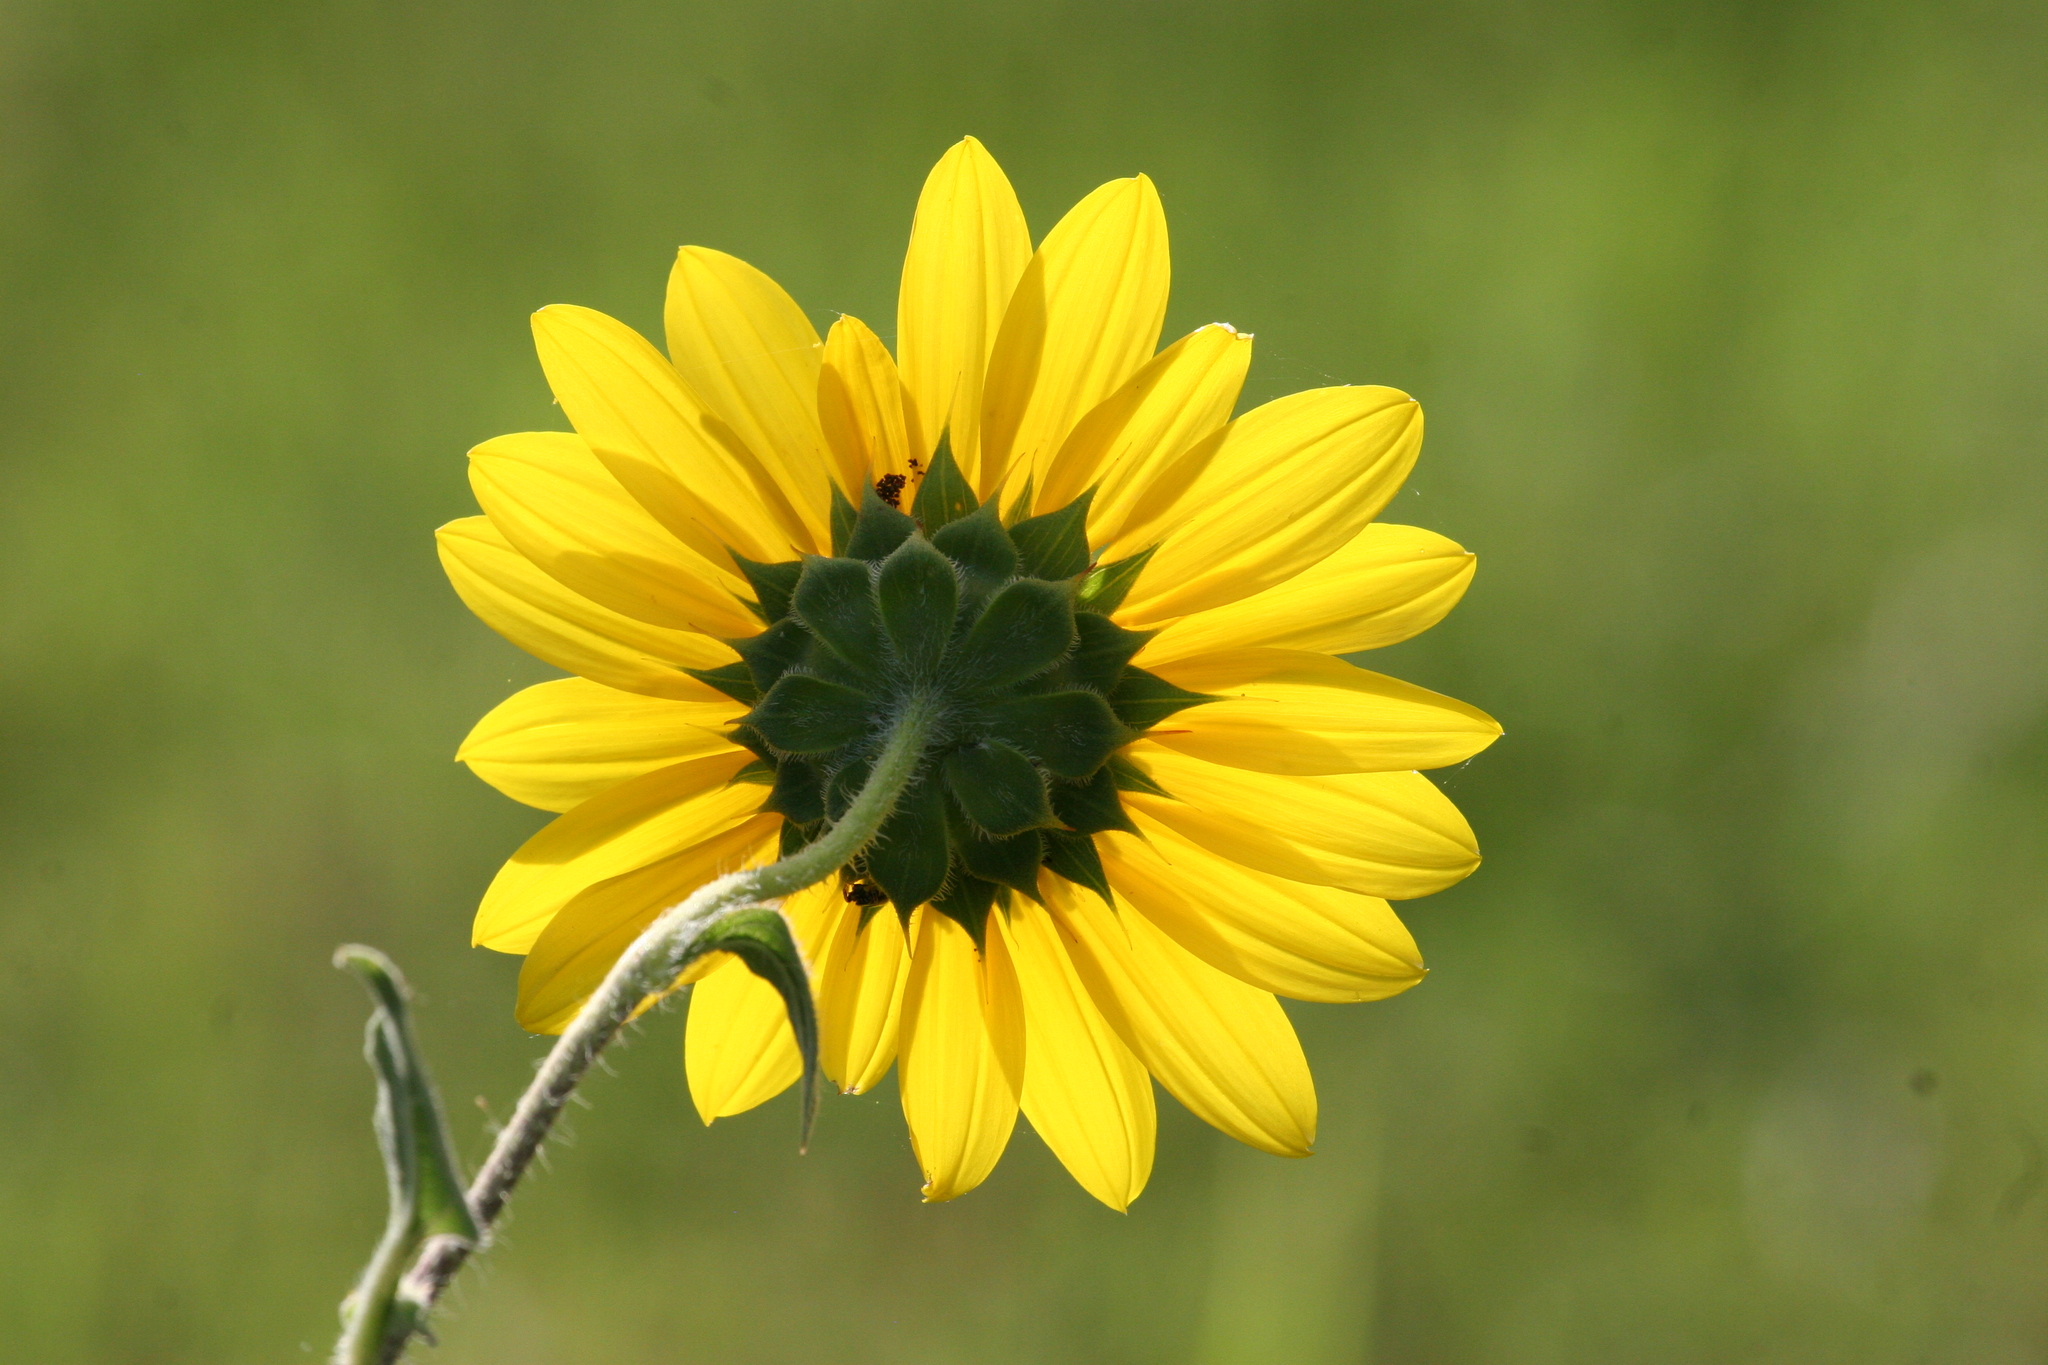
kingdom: Plantae
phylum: Tracheophyta
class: Magnoliopsida
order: Asterales
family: Asteraceae
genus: Helianthus
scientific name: Helianthus annuus
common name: Sunflower
